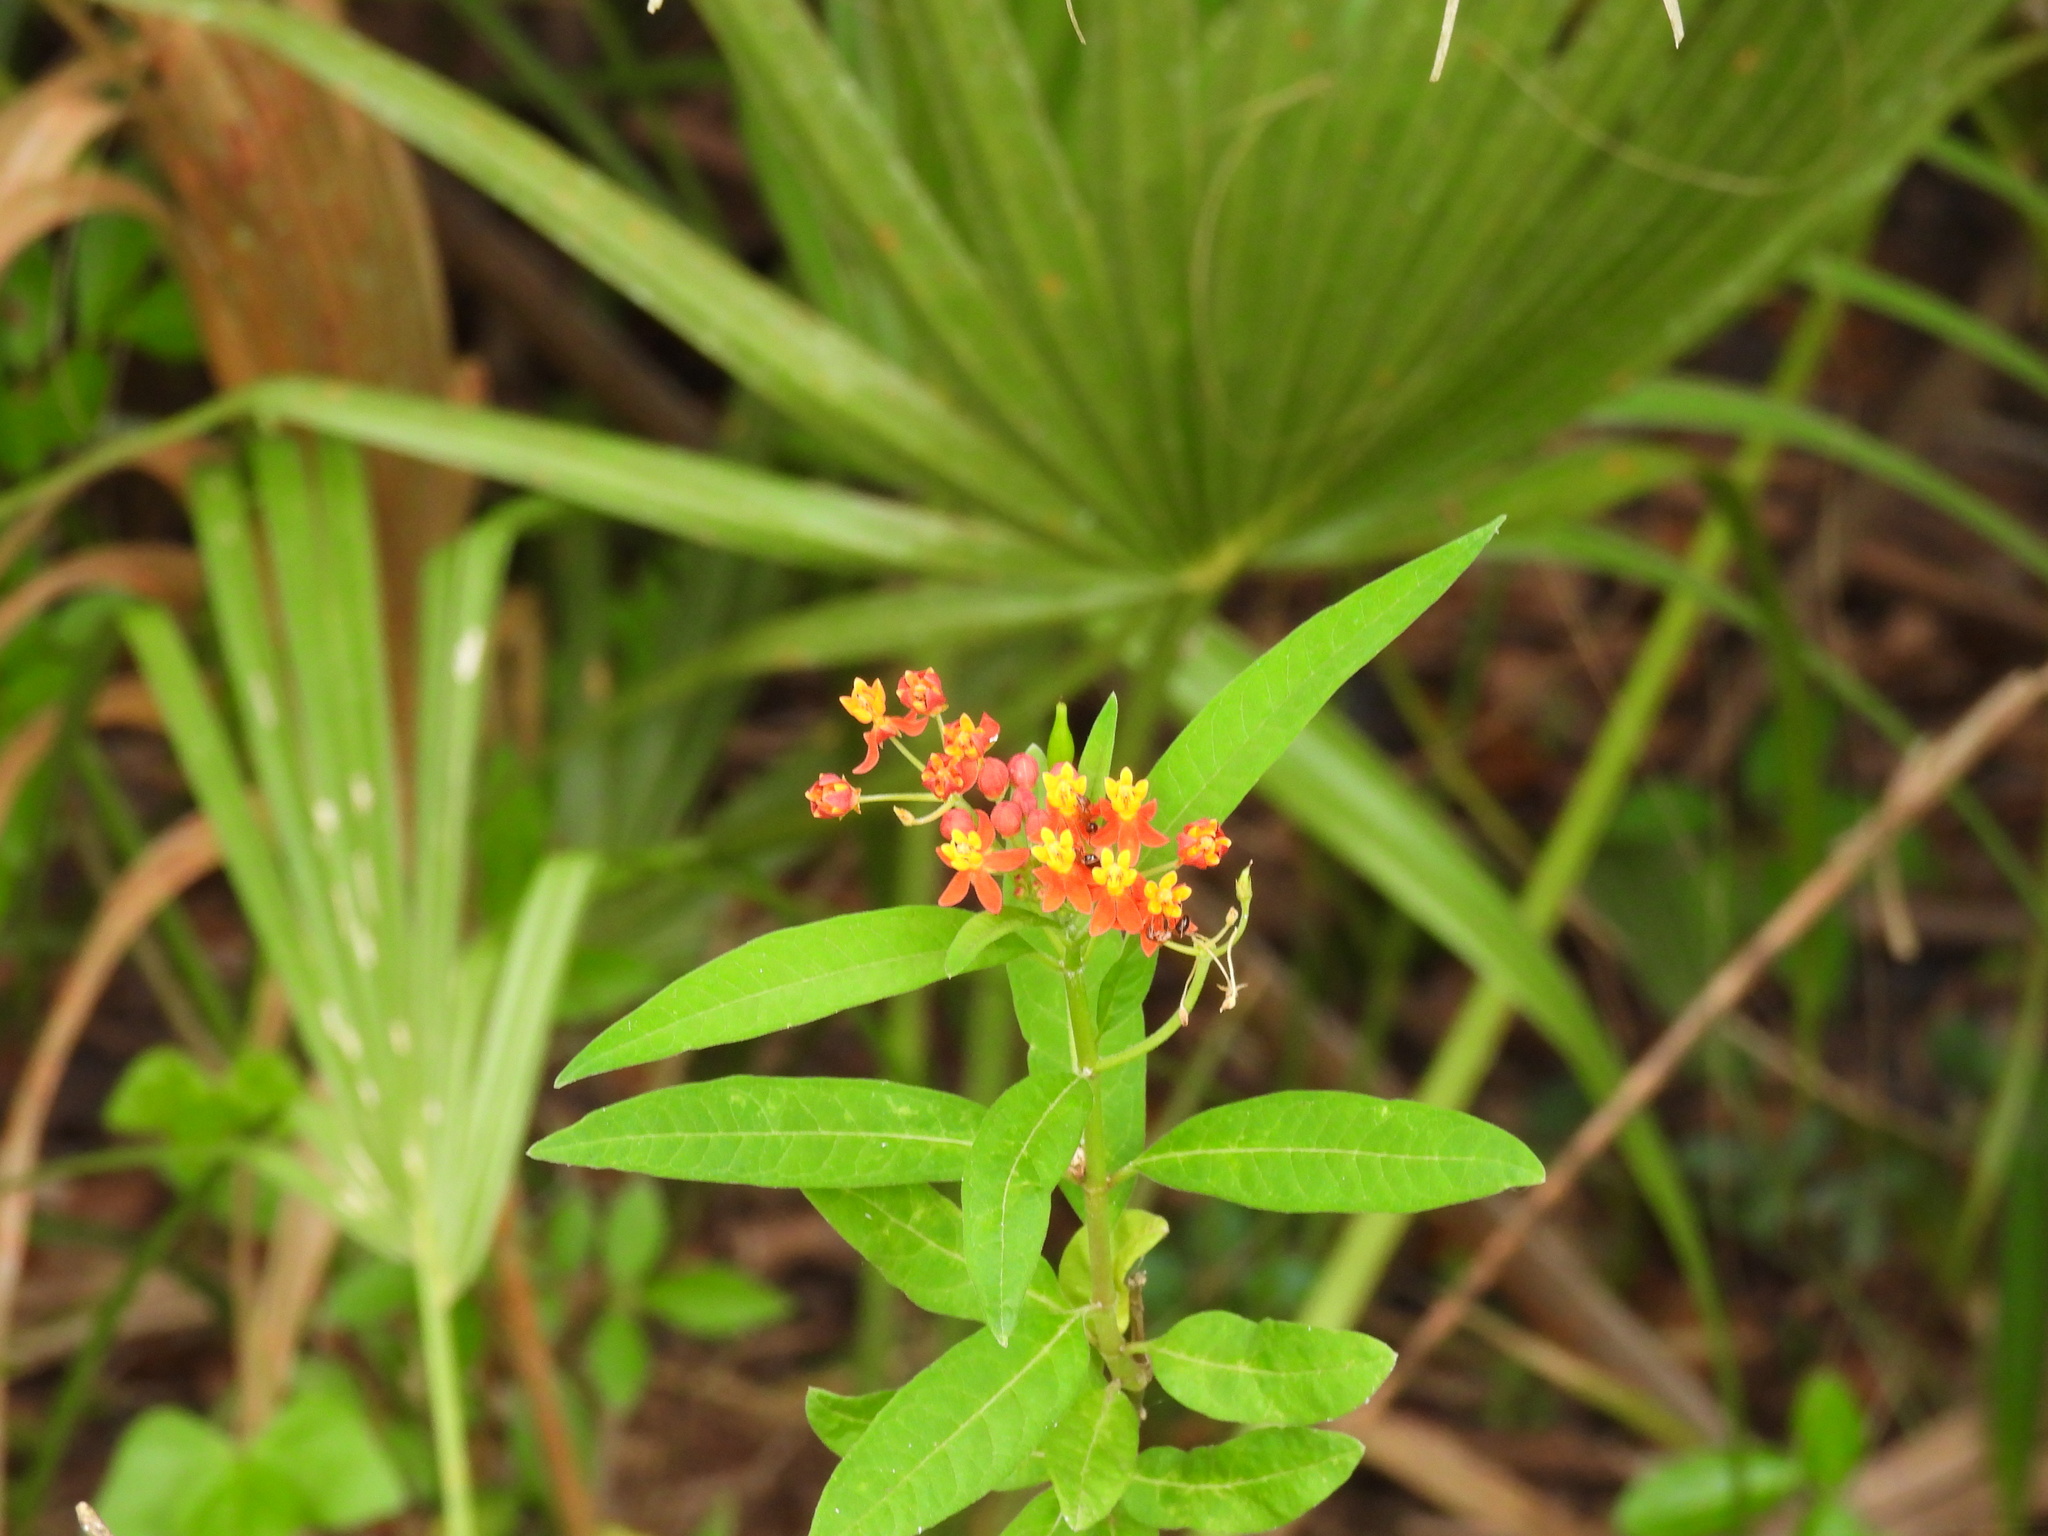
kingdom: Plantae
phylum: Tracheophyta
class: Magnoliopsida
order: Gentianales
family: Apocynaceae
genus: Asclepias
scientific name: Asclepias curassavica
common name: Bloodflower
